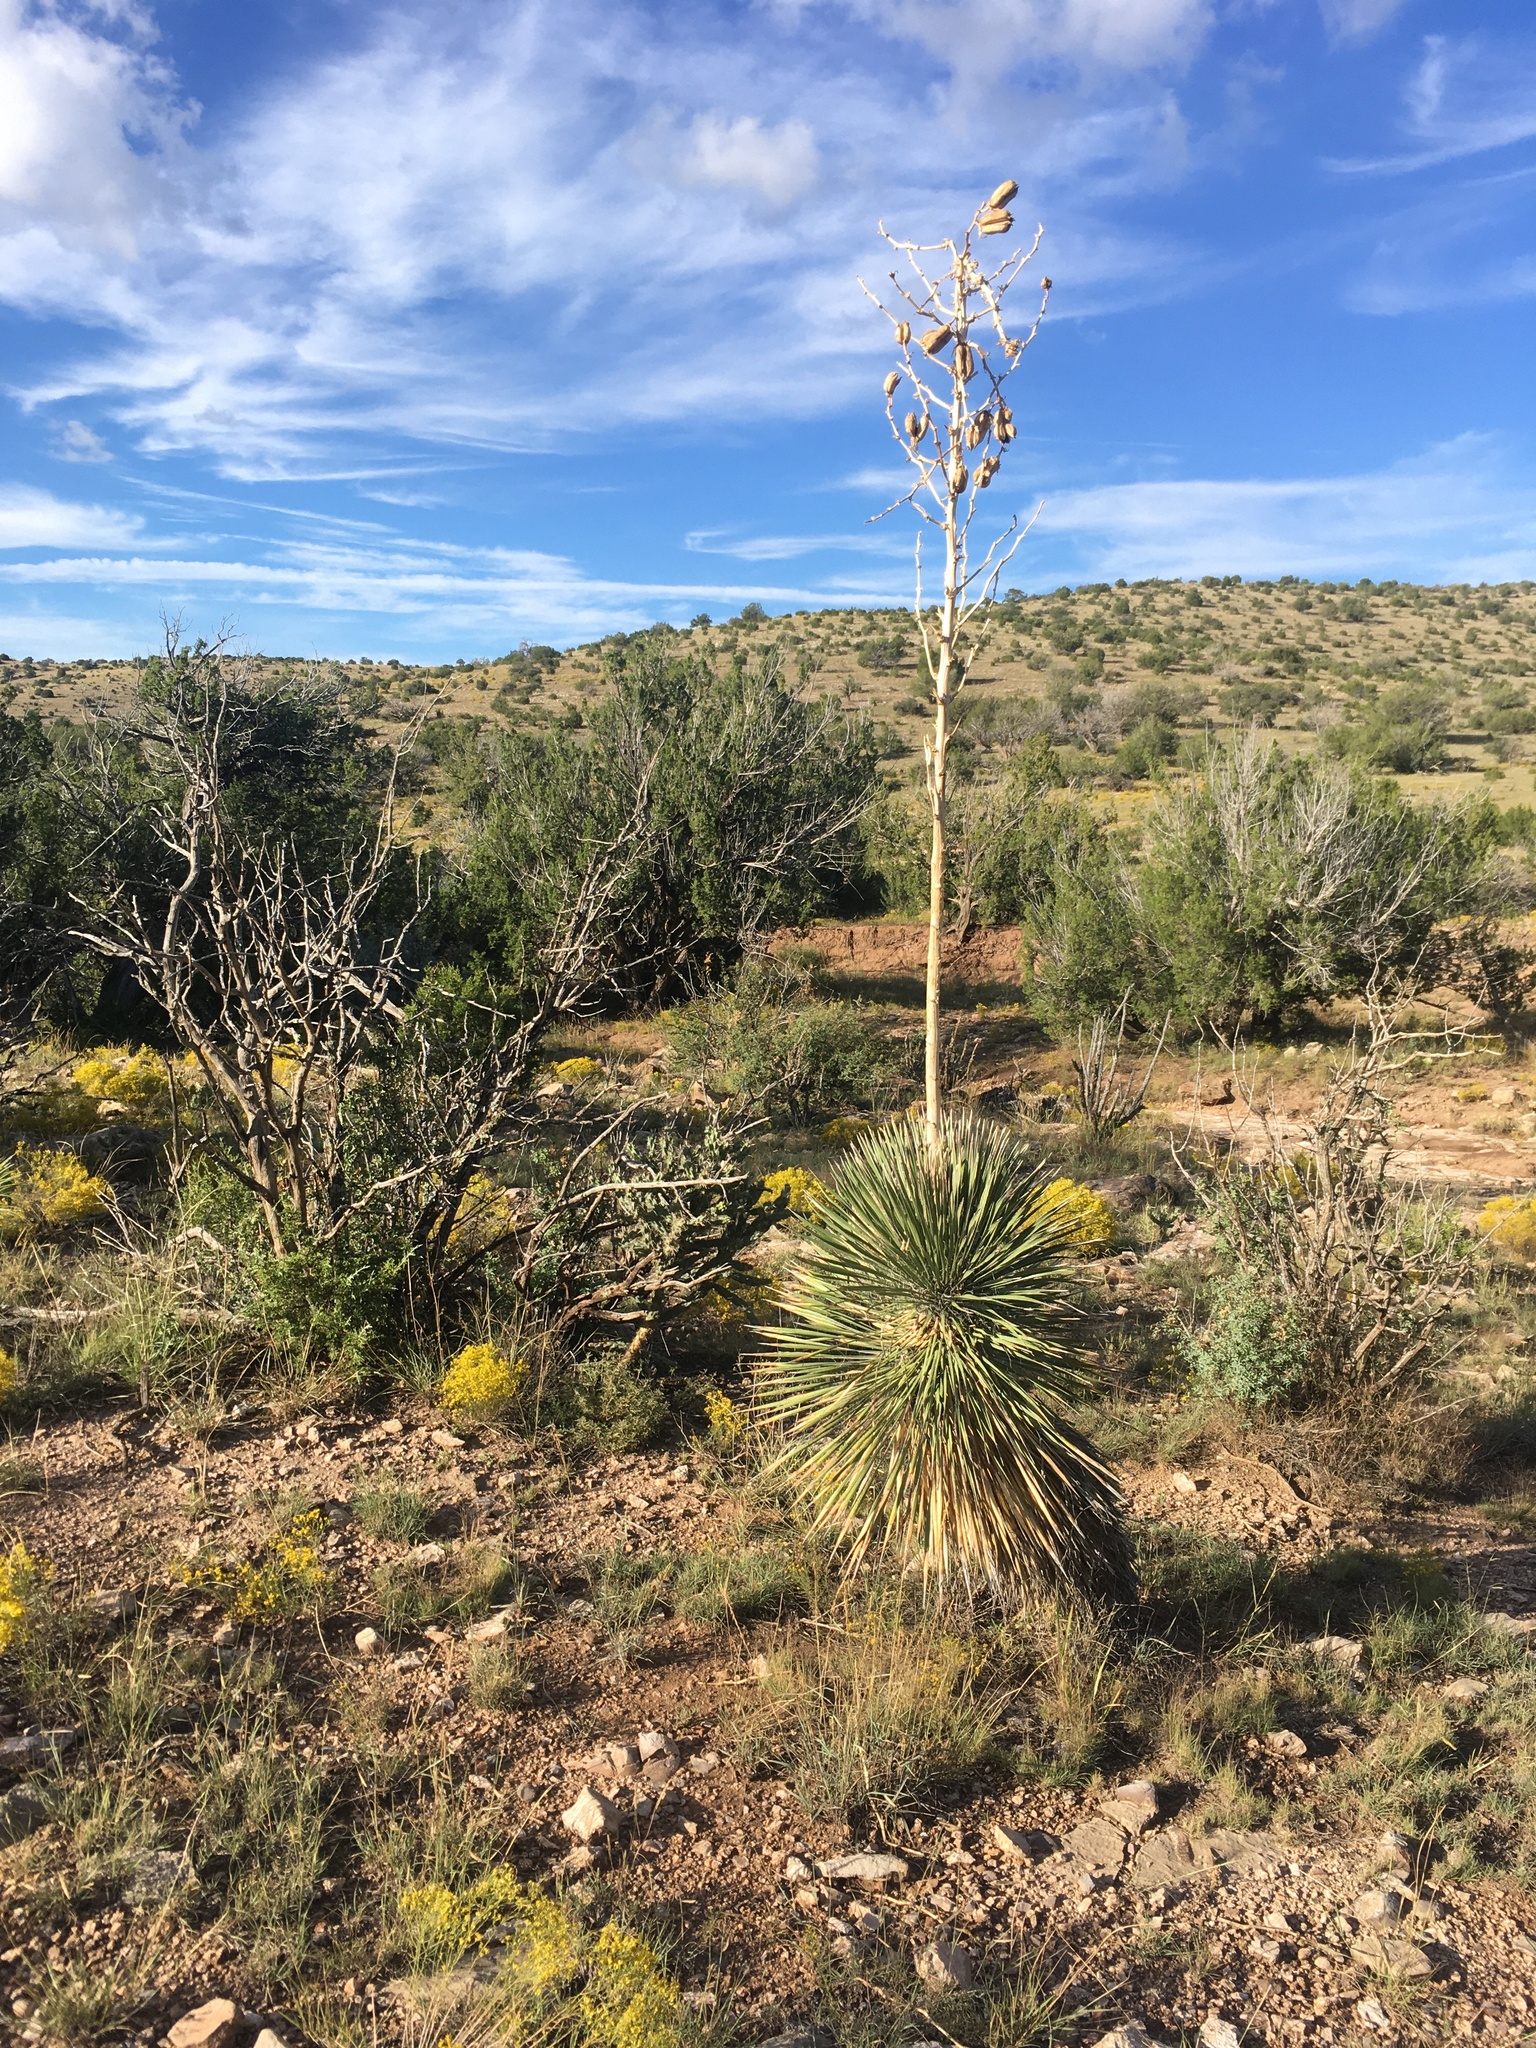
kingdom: Plantae
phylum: Tracheophyta
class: Liliopsida
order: Asparagales
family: Asparagaceae
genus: Yucca
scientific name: Yucca elata
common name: Palmella
